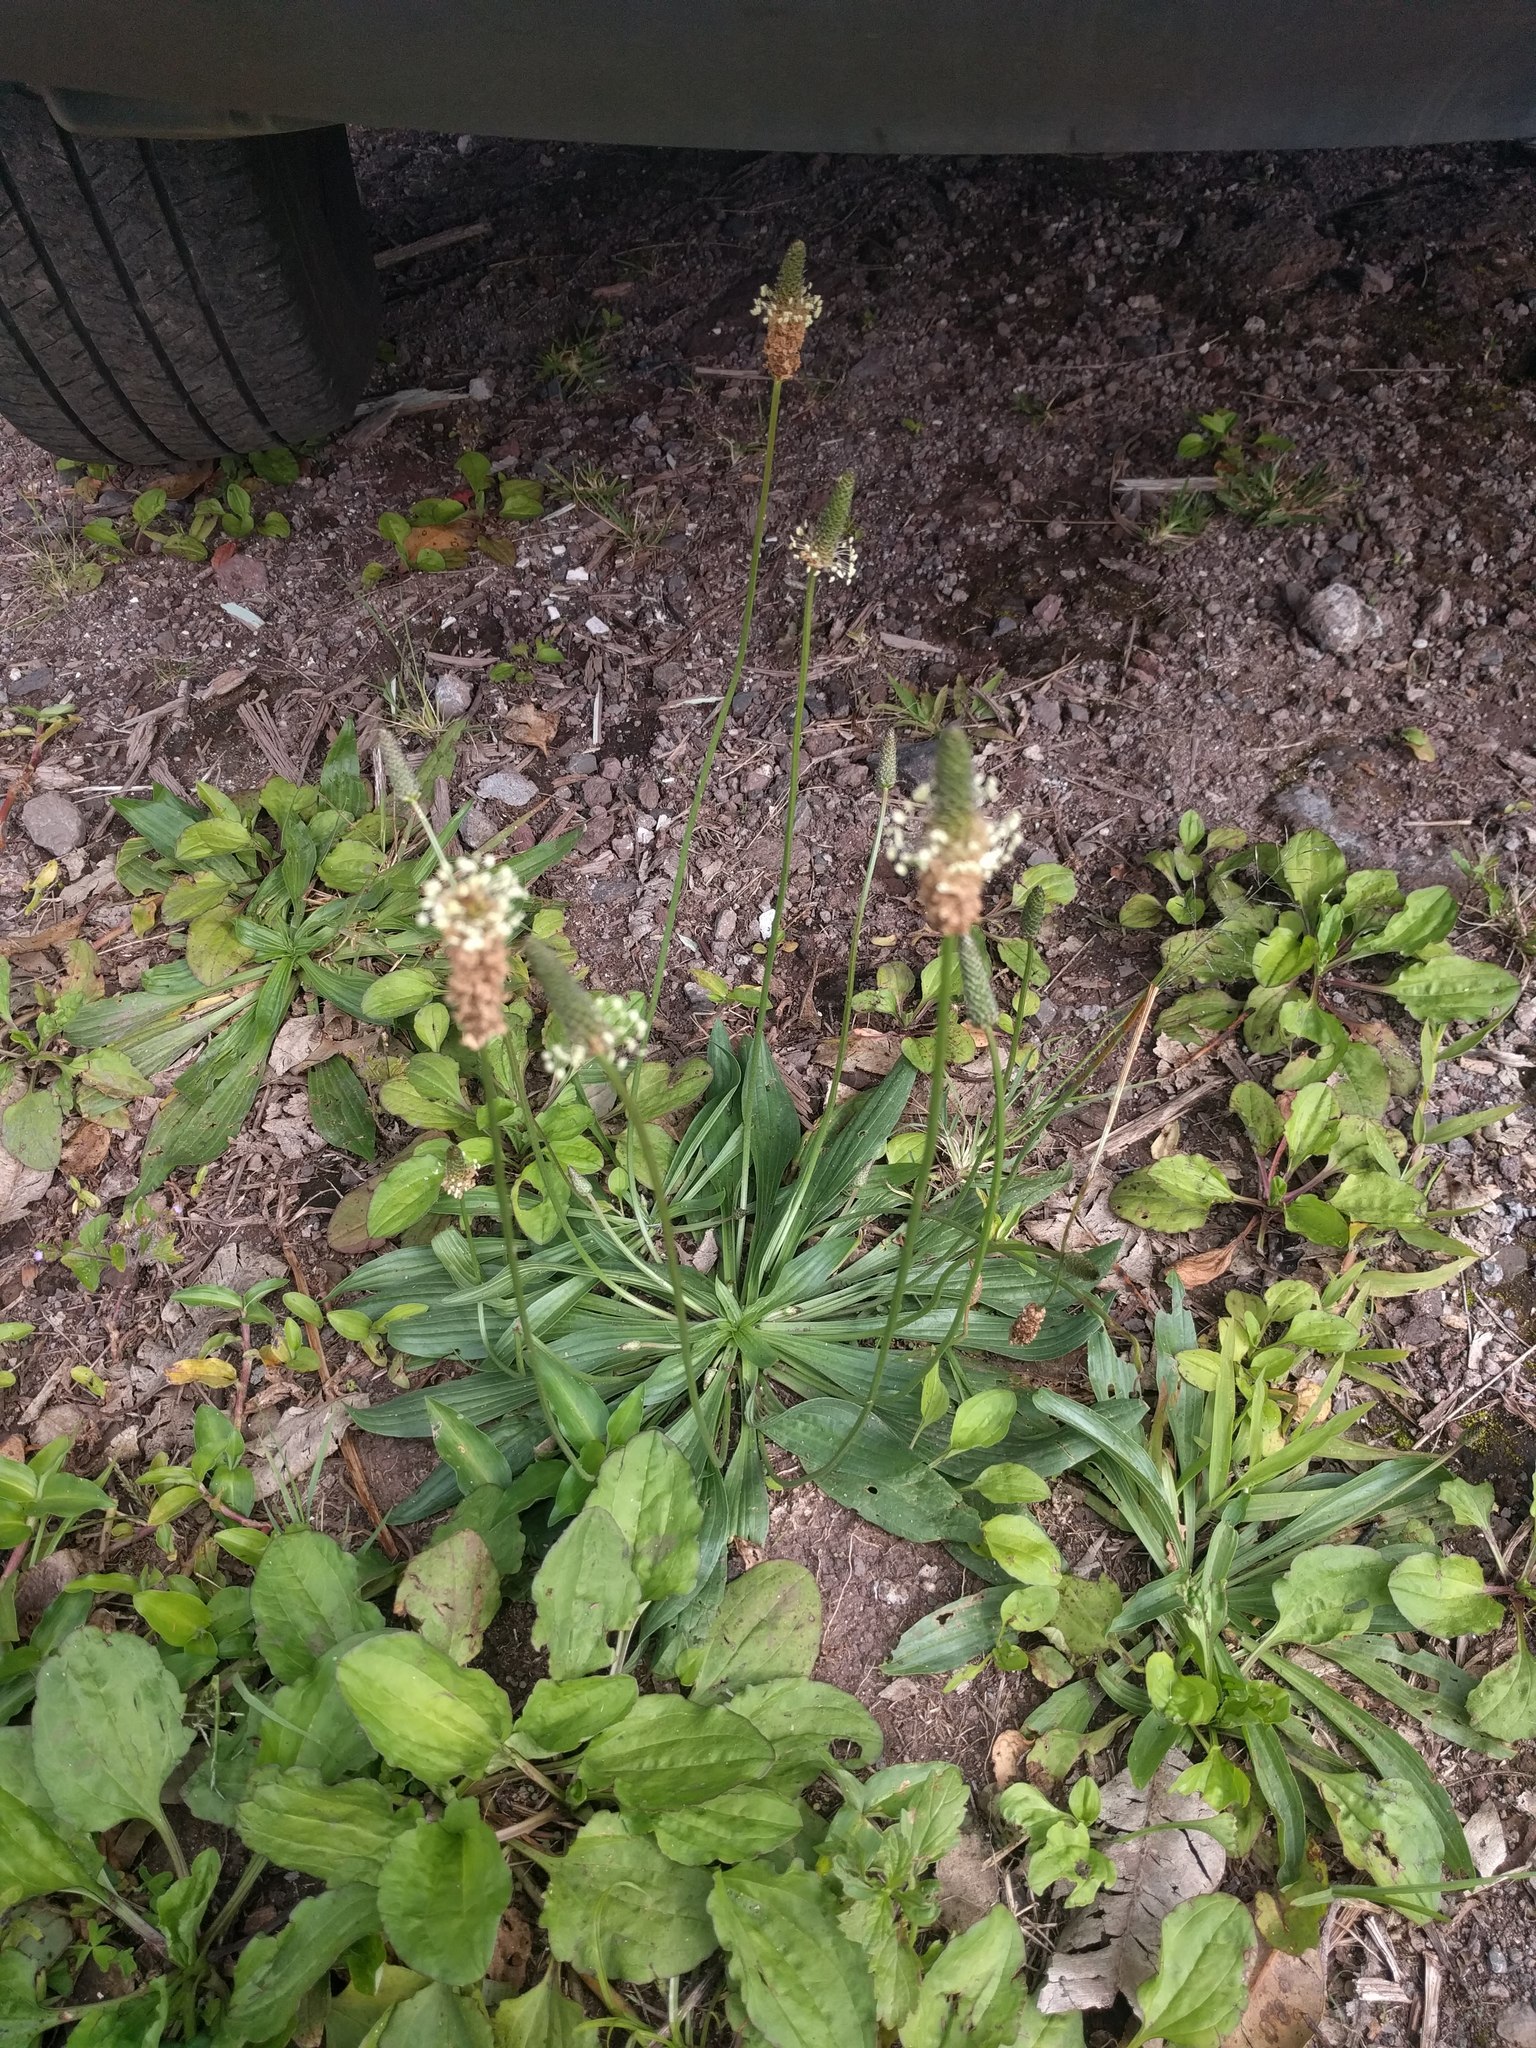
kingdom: Plantae
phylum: Tracheophyta
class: Magnoliopsida
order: Lamiales
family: Plantaginaceae
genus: Plantago
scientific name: Plantago lanceolata
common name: Ribwort plantain
